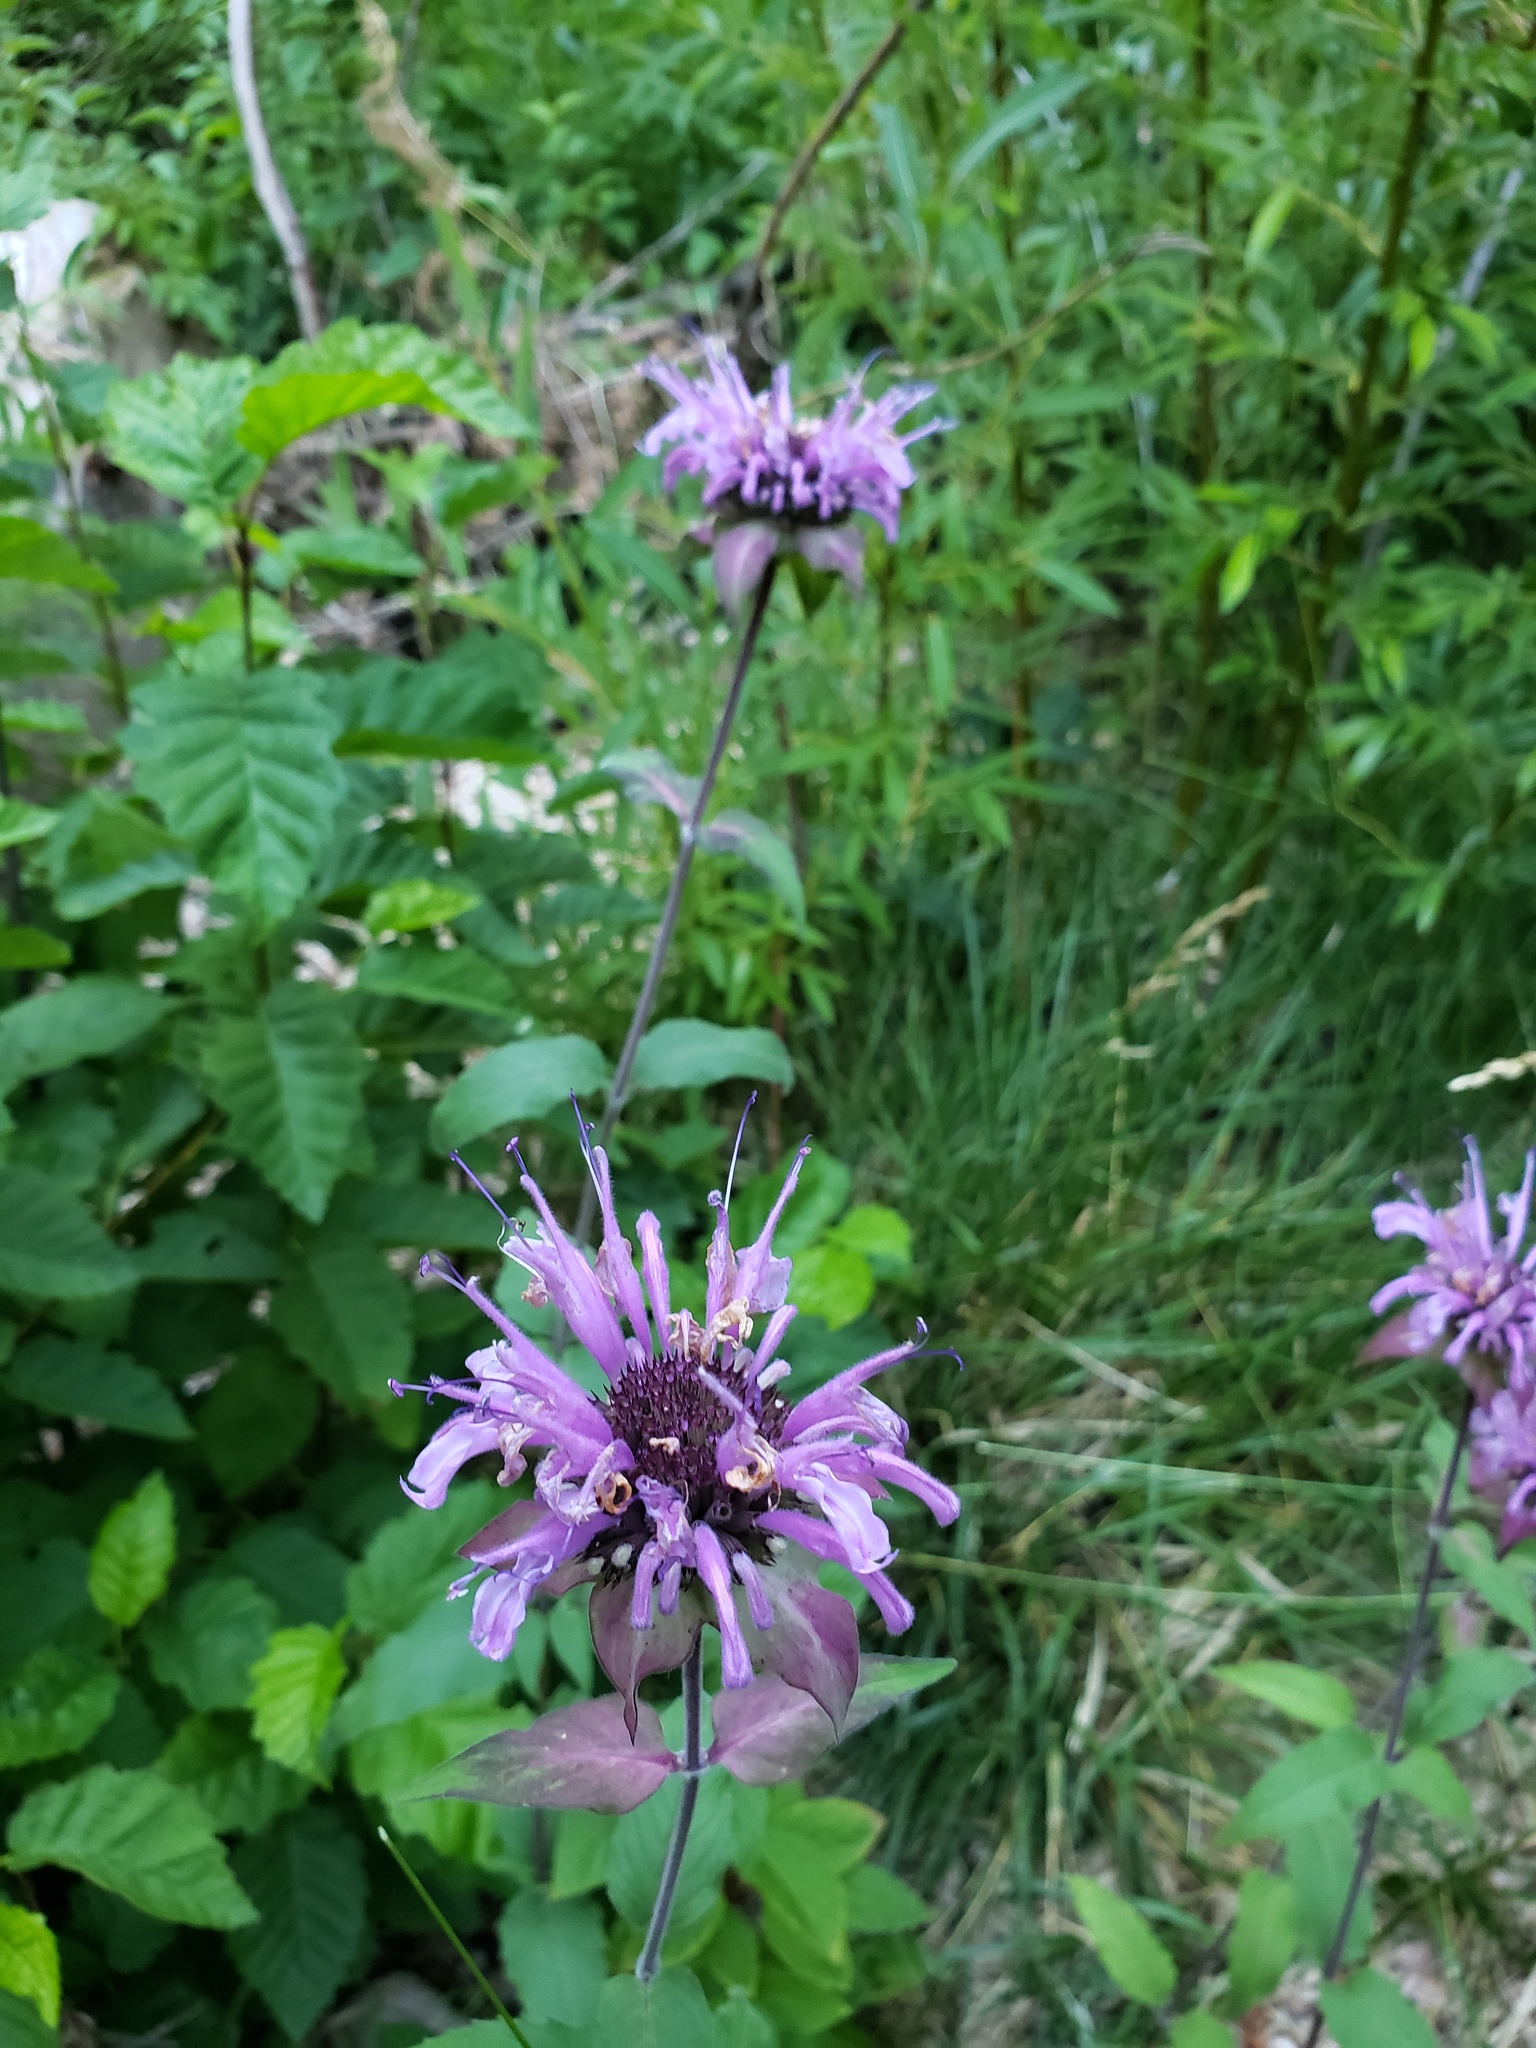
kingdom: Plantae
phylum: Tracheophyta
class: Magnoliopsida
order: Lamiales
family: Lamiaceae
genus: Monarda
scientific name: Monarda fistulosa
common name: Purple beebalm
